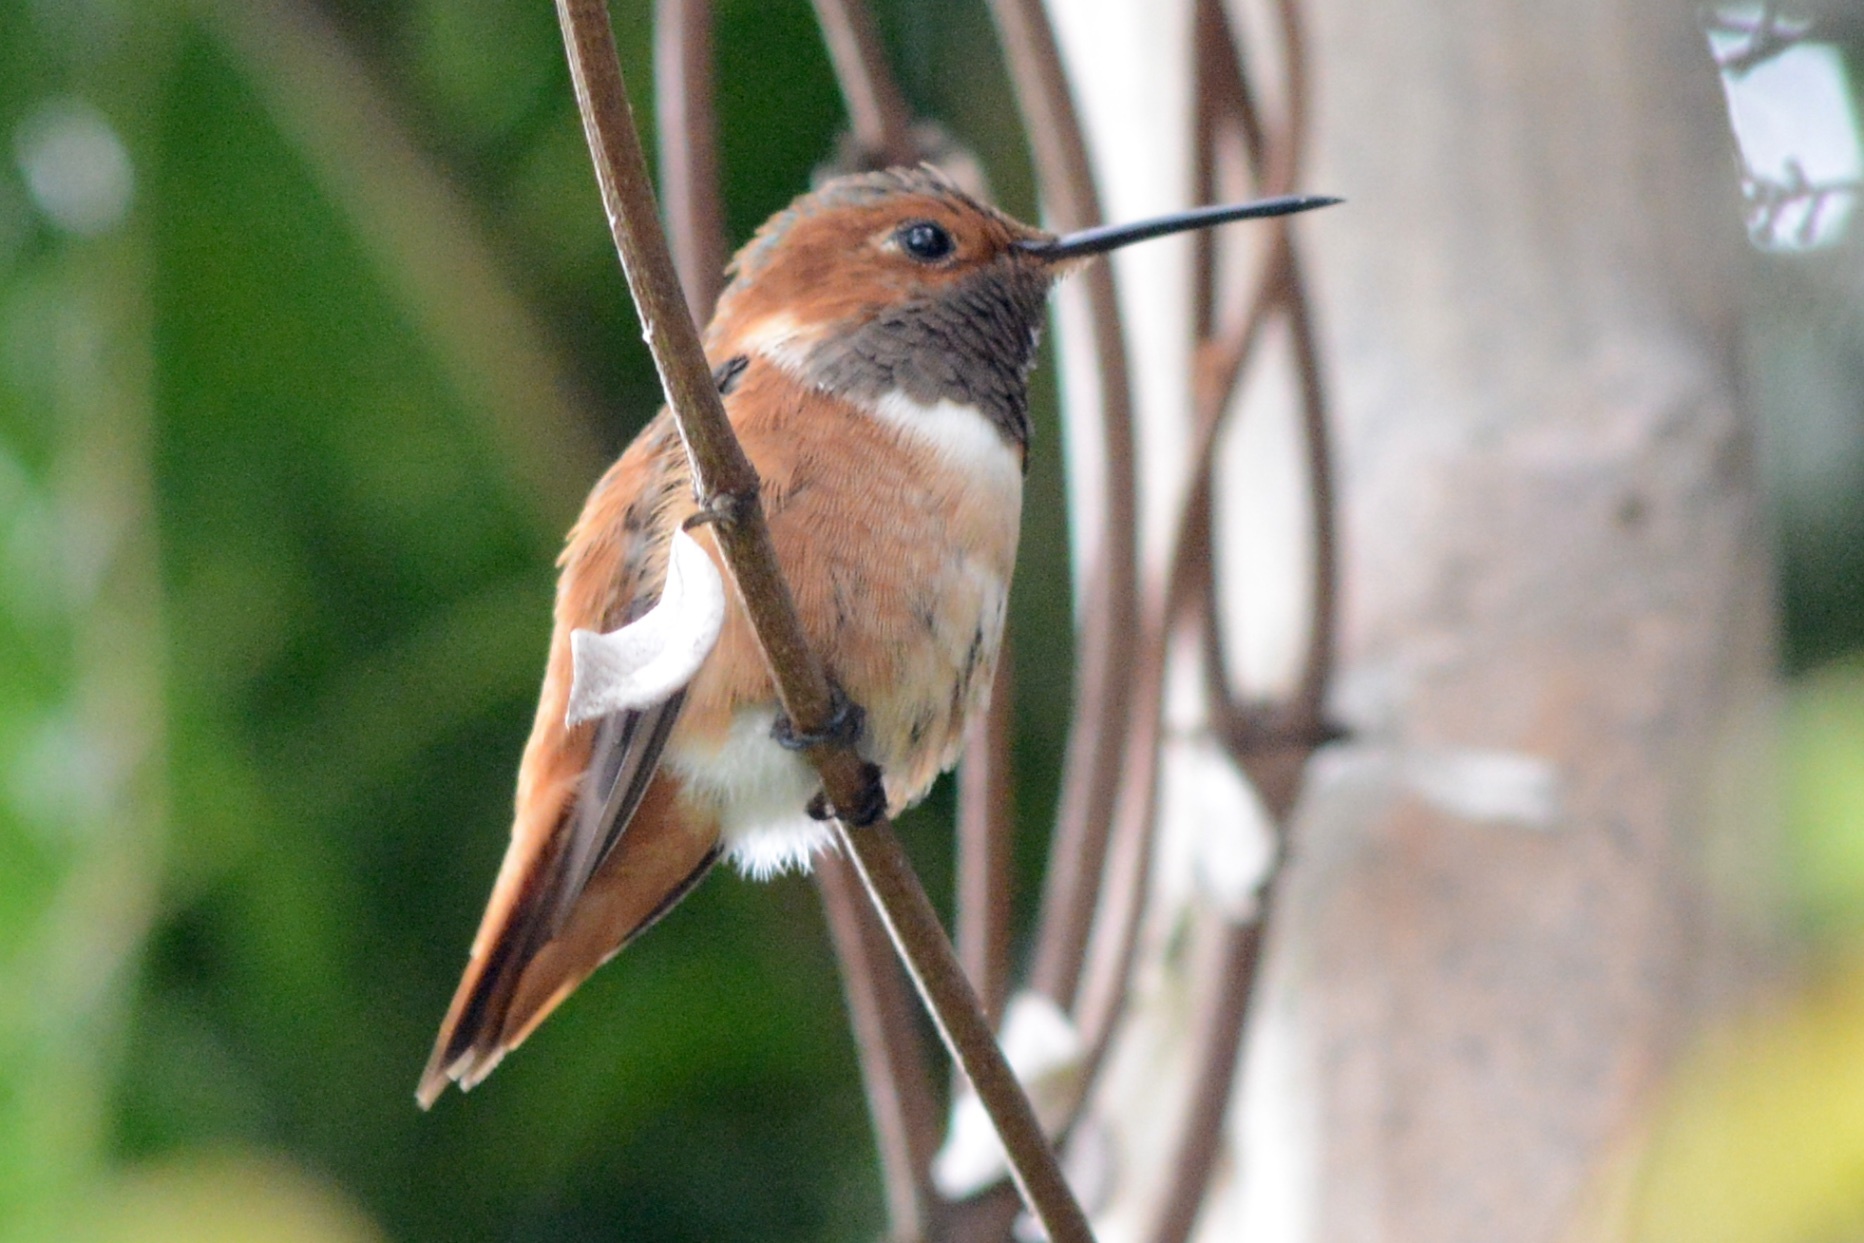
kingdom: Animalia
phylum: Chordata
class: Aves
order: Apodiformes
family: Trochilidae
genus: Selasphorus
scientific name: Selasphorus sasin
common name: Allen's hummingbird
